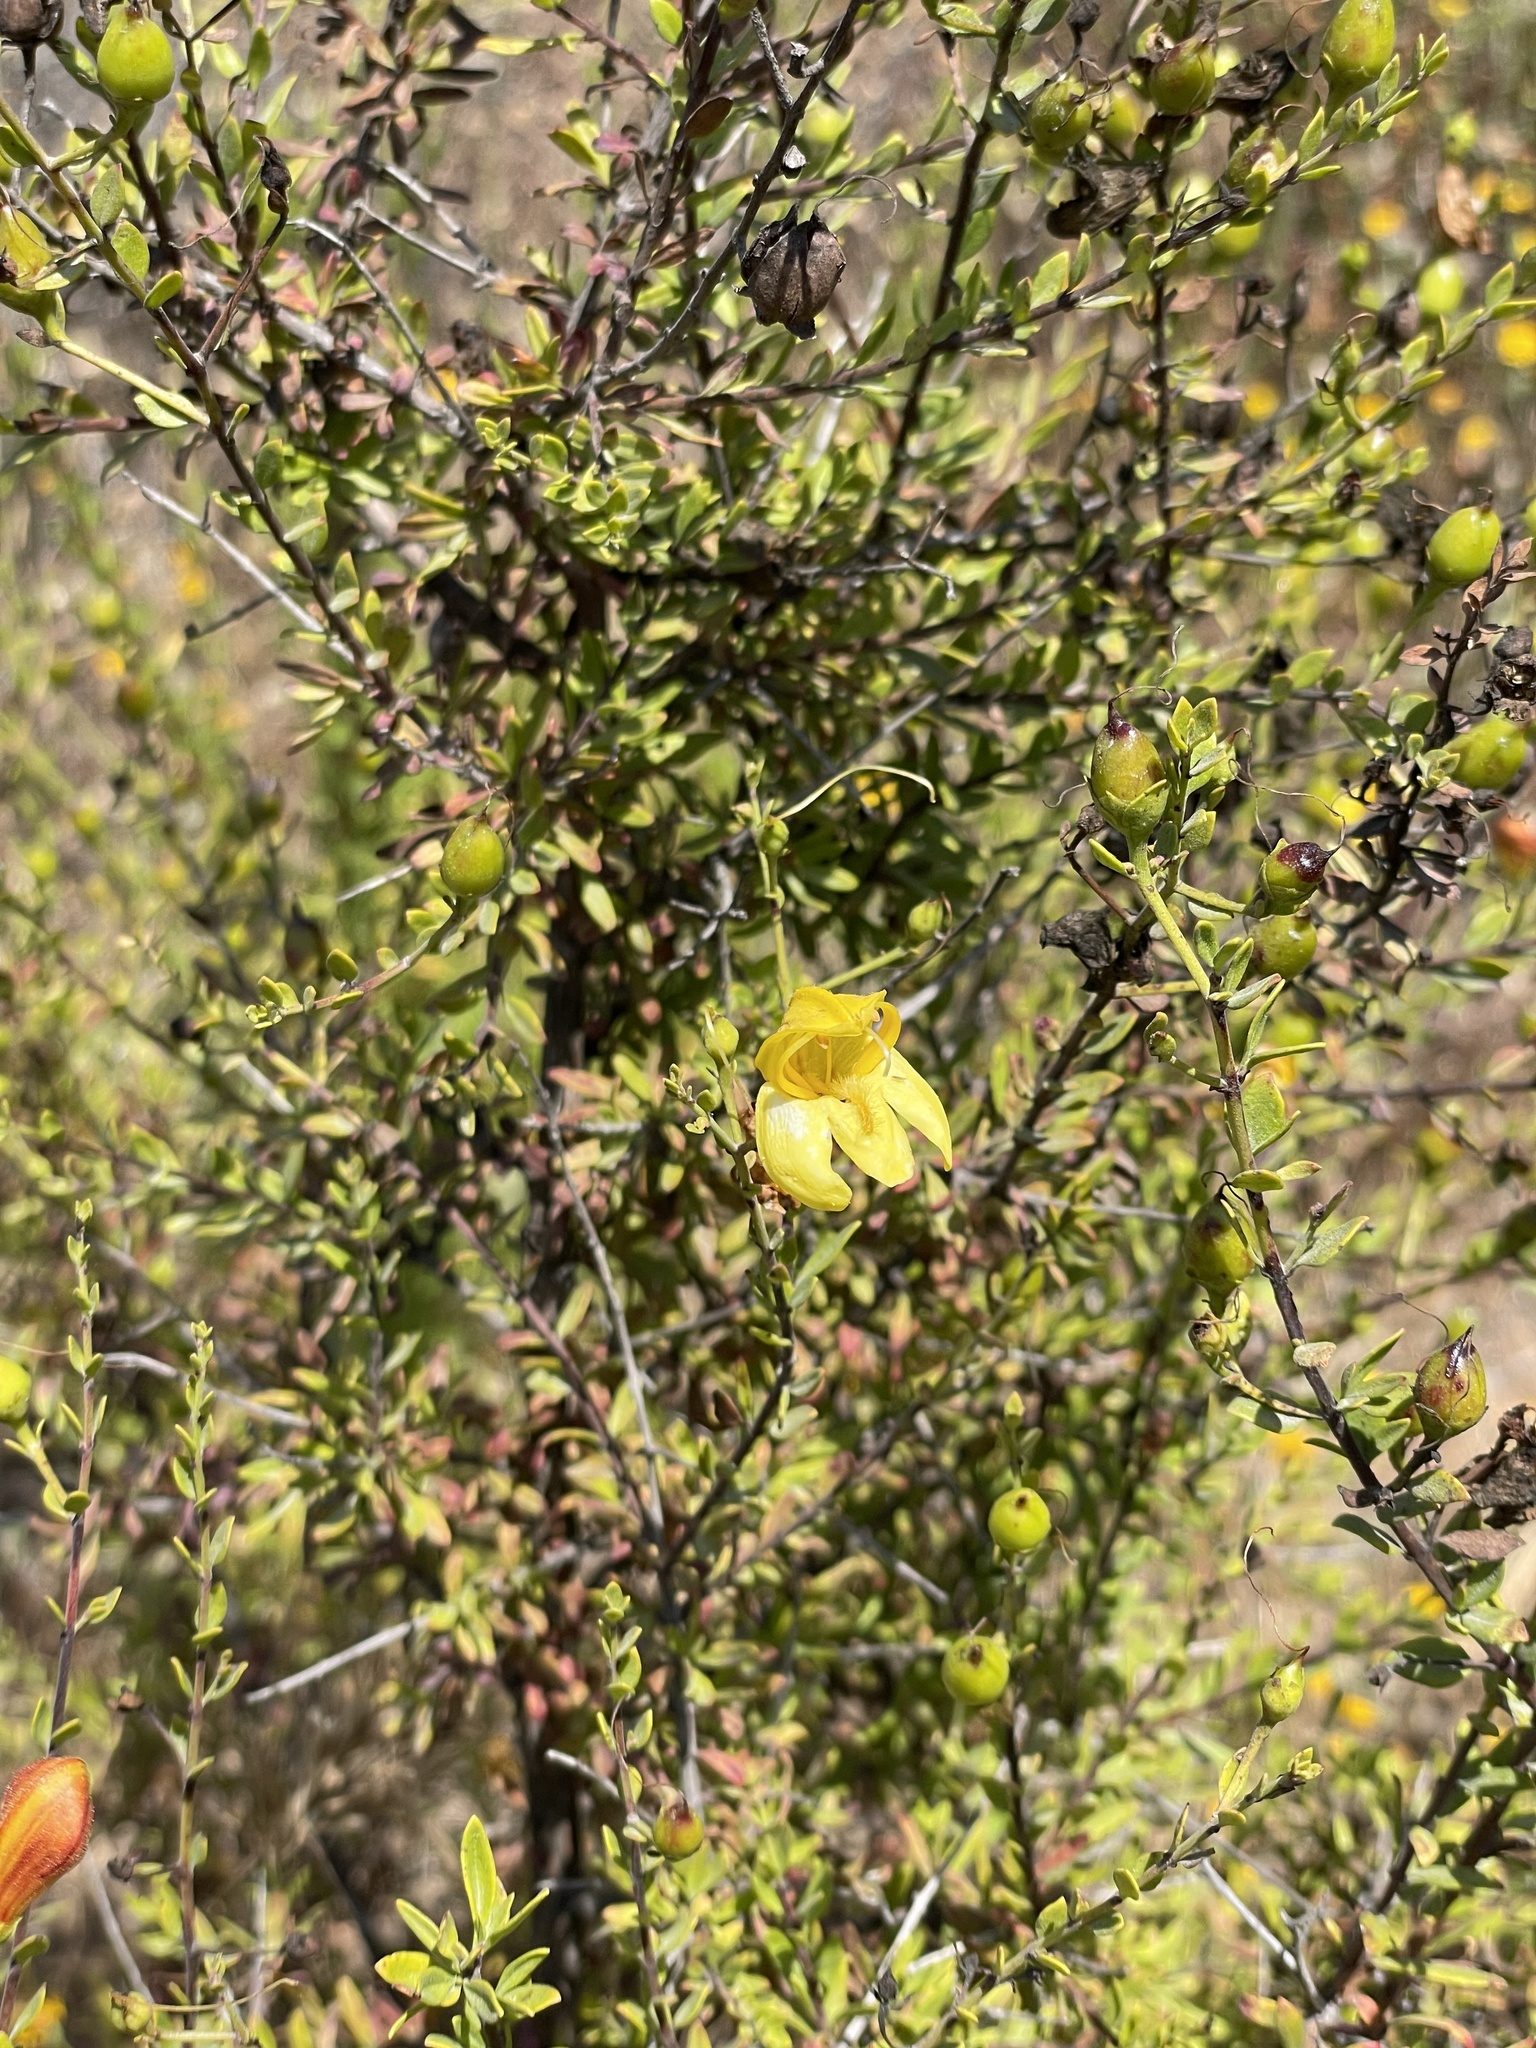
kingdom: Plantae
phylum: Tracheophyta
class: Magnoliopsida
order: Lamiales
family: Plantaginaceae
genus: Keckiella
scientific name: Keckiella antirrhinoides
